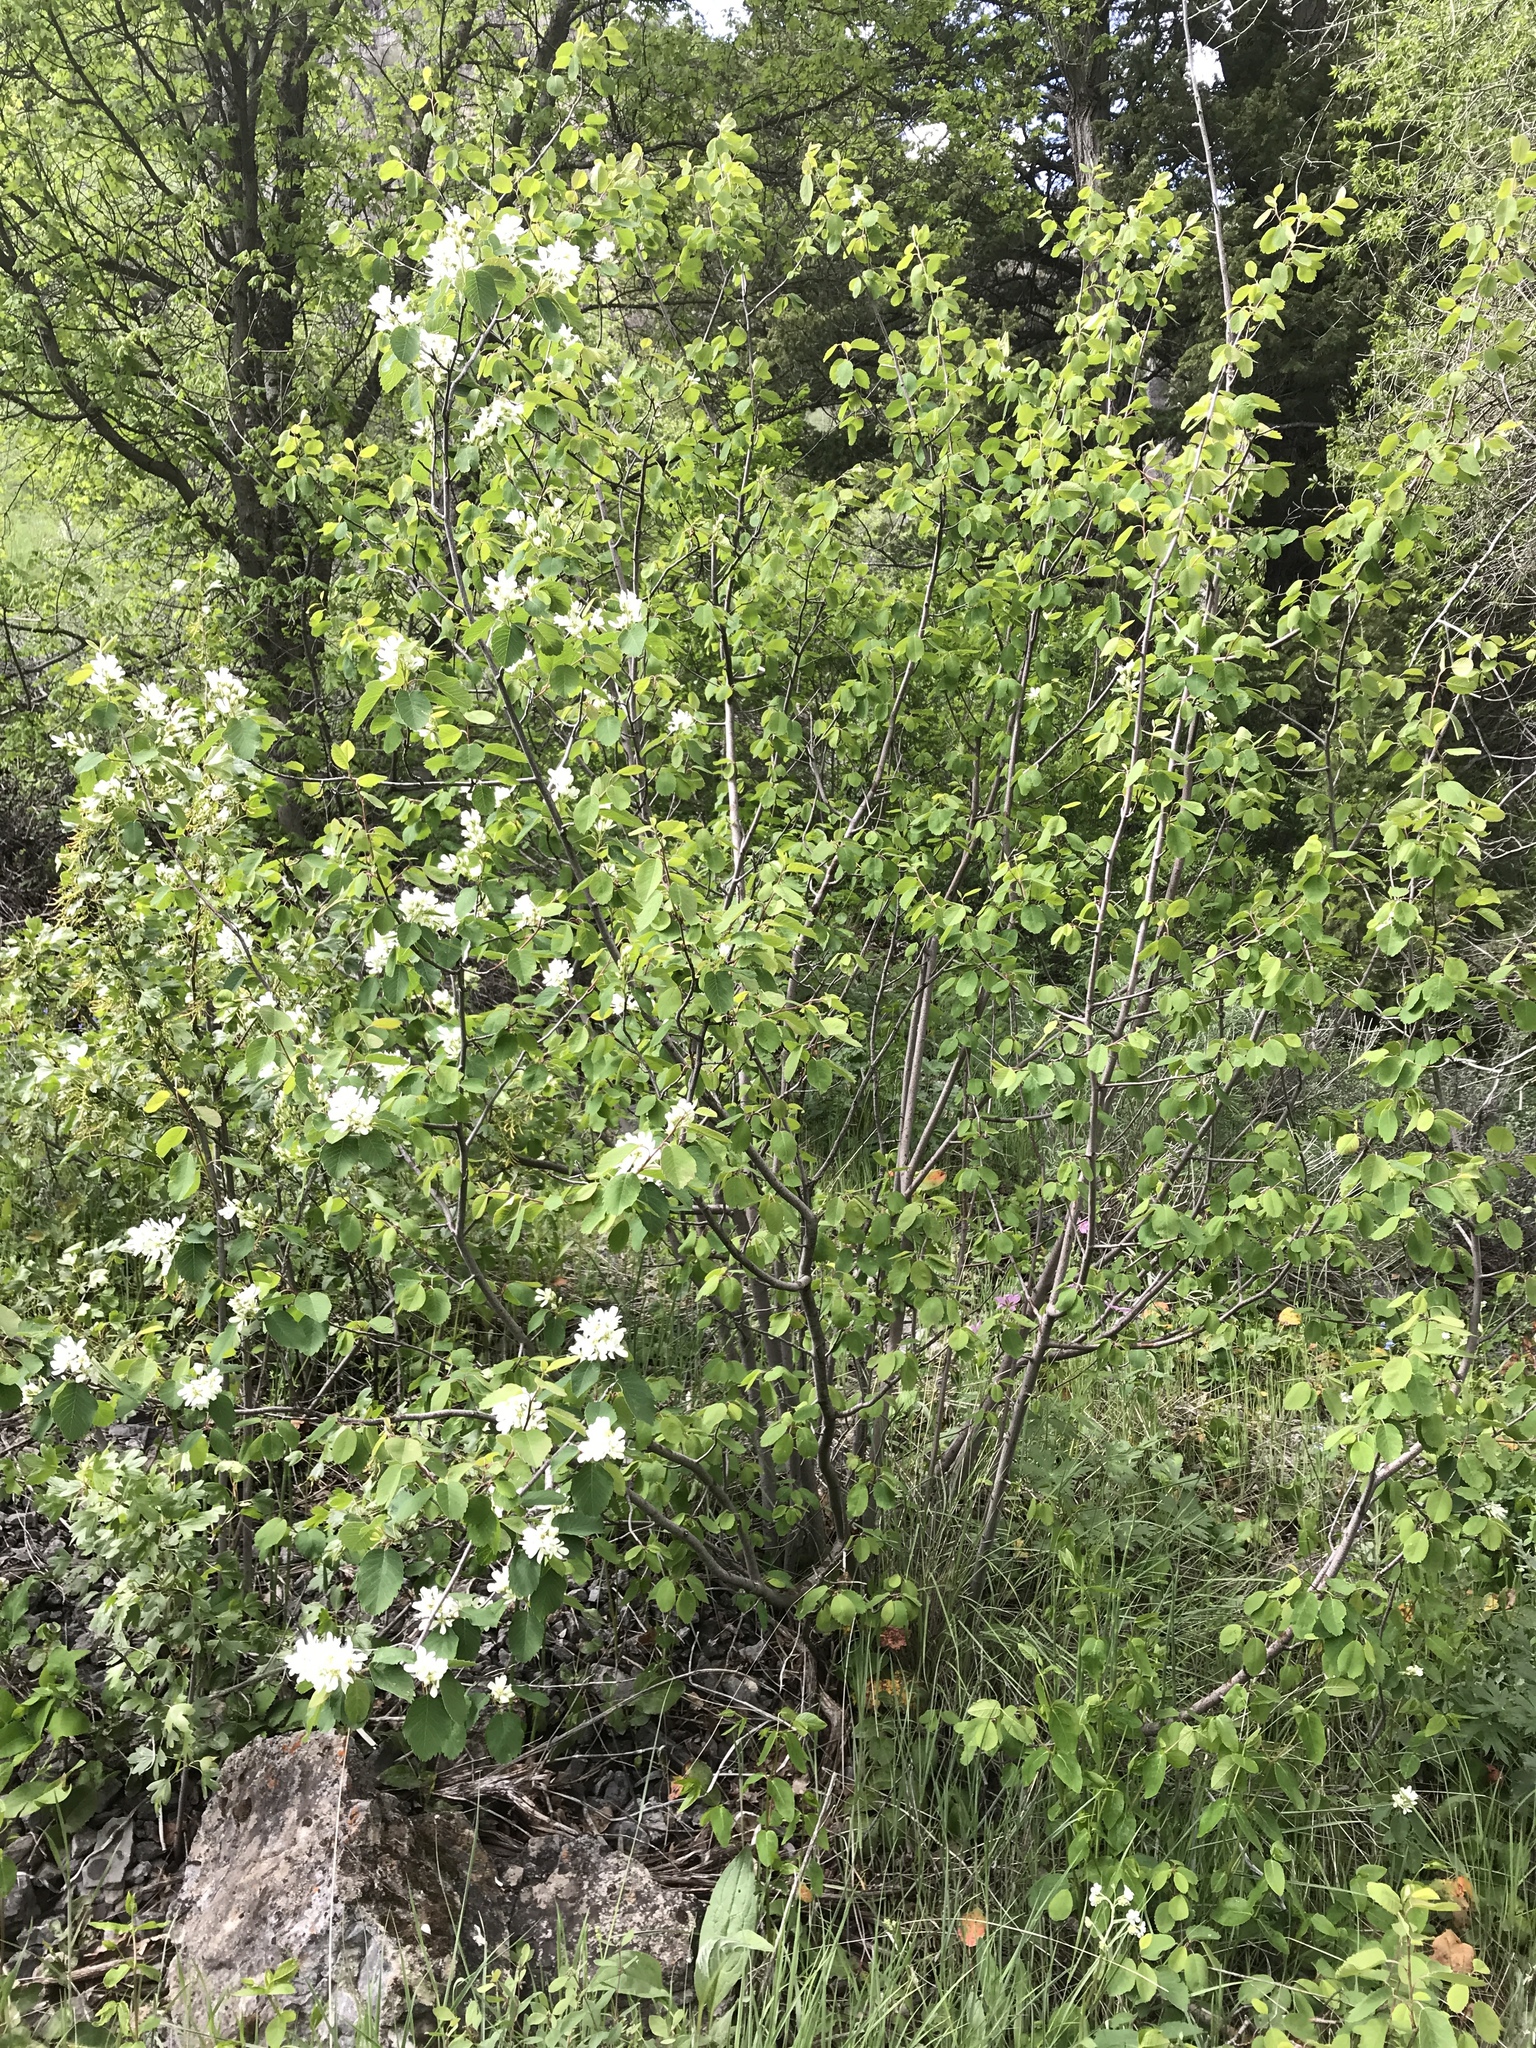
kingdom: Plantae
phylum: Tracheophyta
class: Magnoliopsida
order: Rosales
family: Rosaceae
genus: Amelanchier
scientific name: Amelanchier alnifolia
